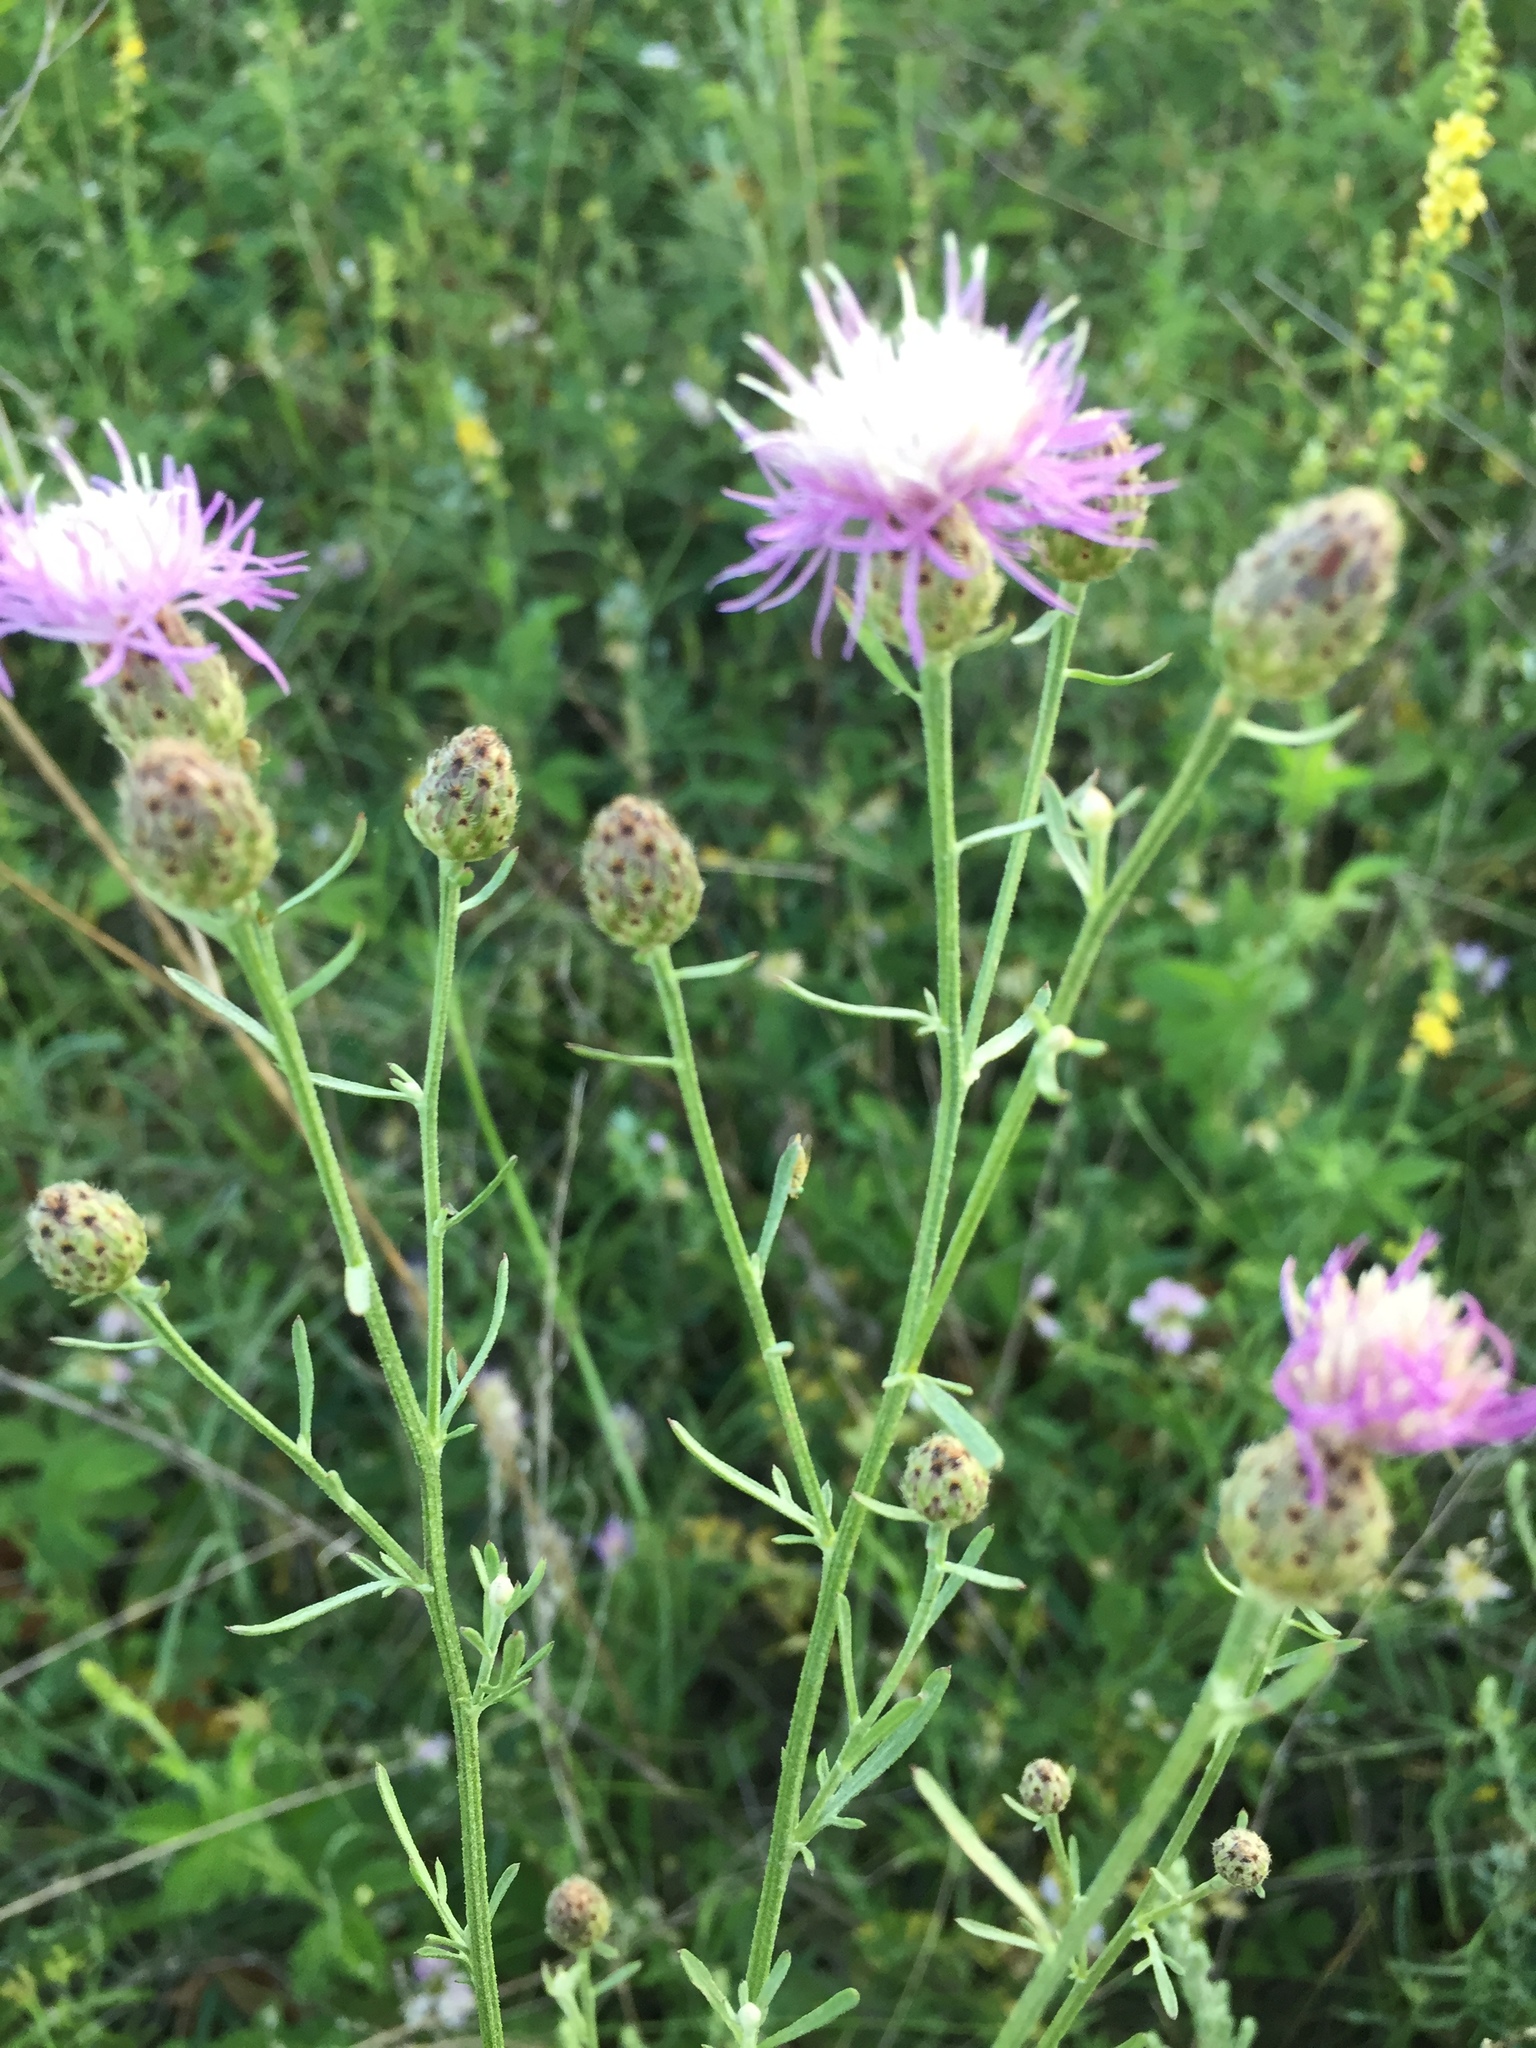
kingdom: Plantae
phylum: Tracheophyta
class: Magnoliopsida
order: Asterales
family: Asteraceae
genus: Centaurea
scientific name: Centaurea stoebe
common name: Spotted knapweed
